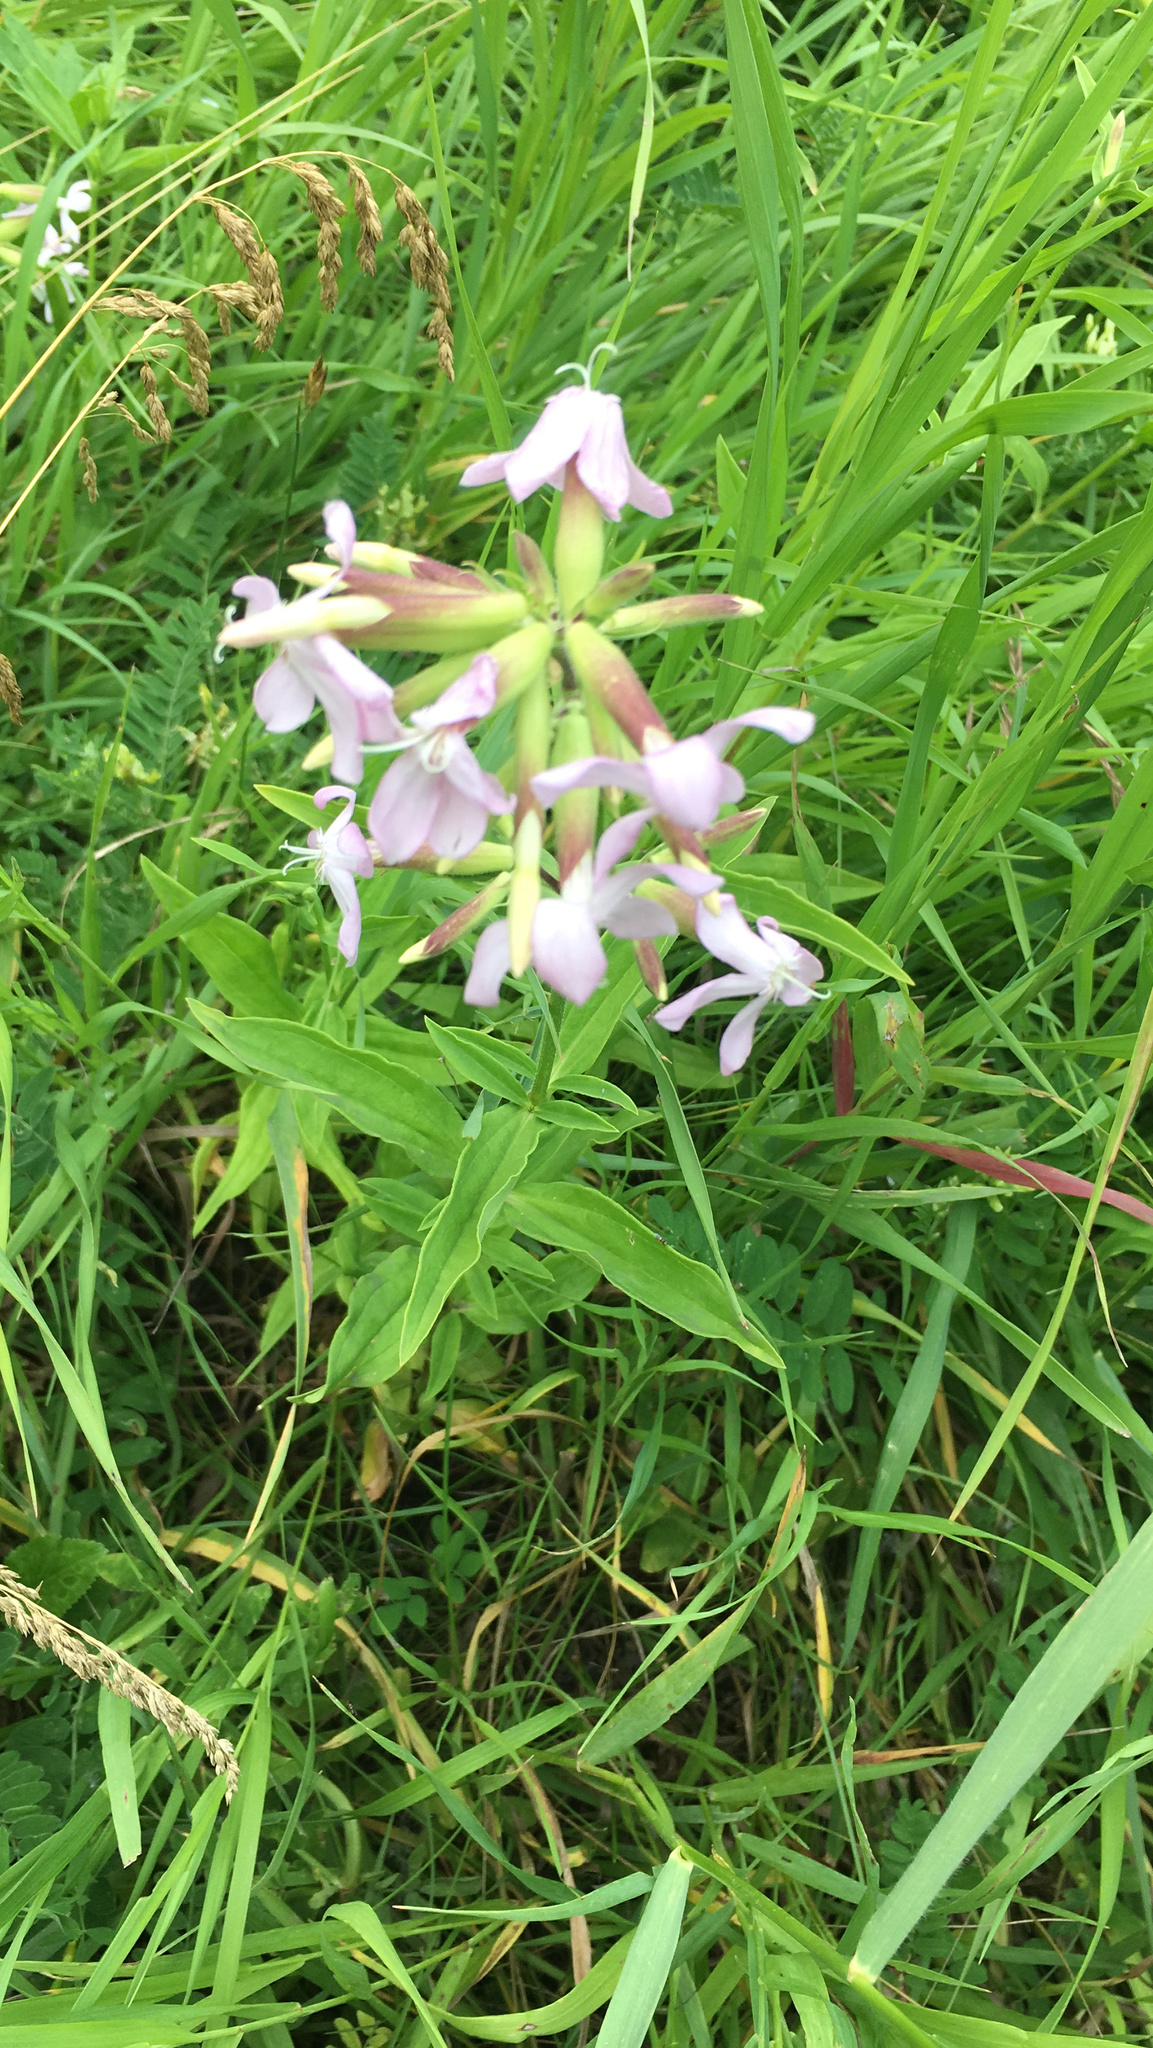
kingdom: Plantae
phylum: Tracheophyta
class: Magnoliopsida
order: Caryophyllales
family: Caryophyllaceae
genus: Saponaria
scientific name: Saponaria officinalis
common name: Soapwort
